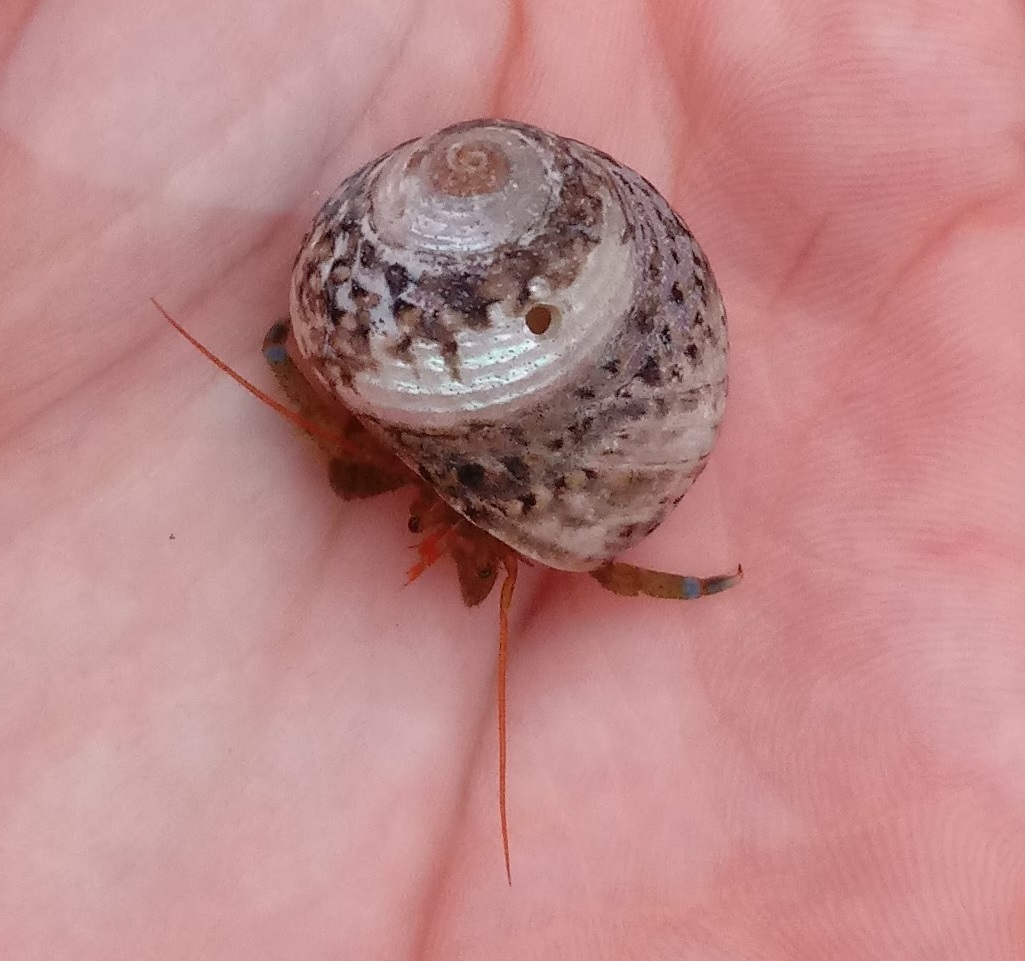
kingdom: Animalia
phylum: Arthropoda
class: Malacostraca
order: Decapoda
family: Paguridae
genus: Pagurus
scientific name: Pagurus samuelis
